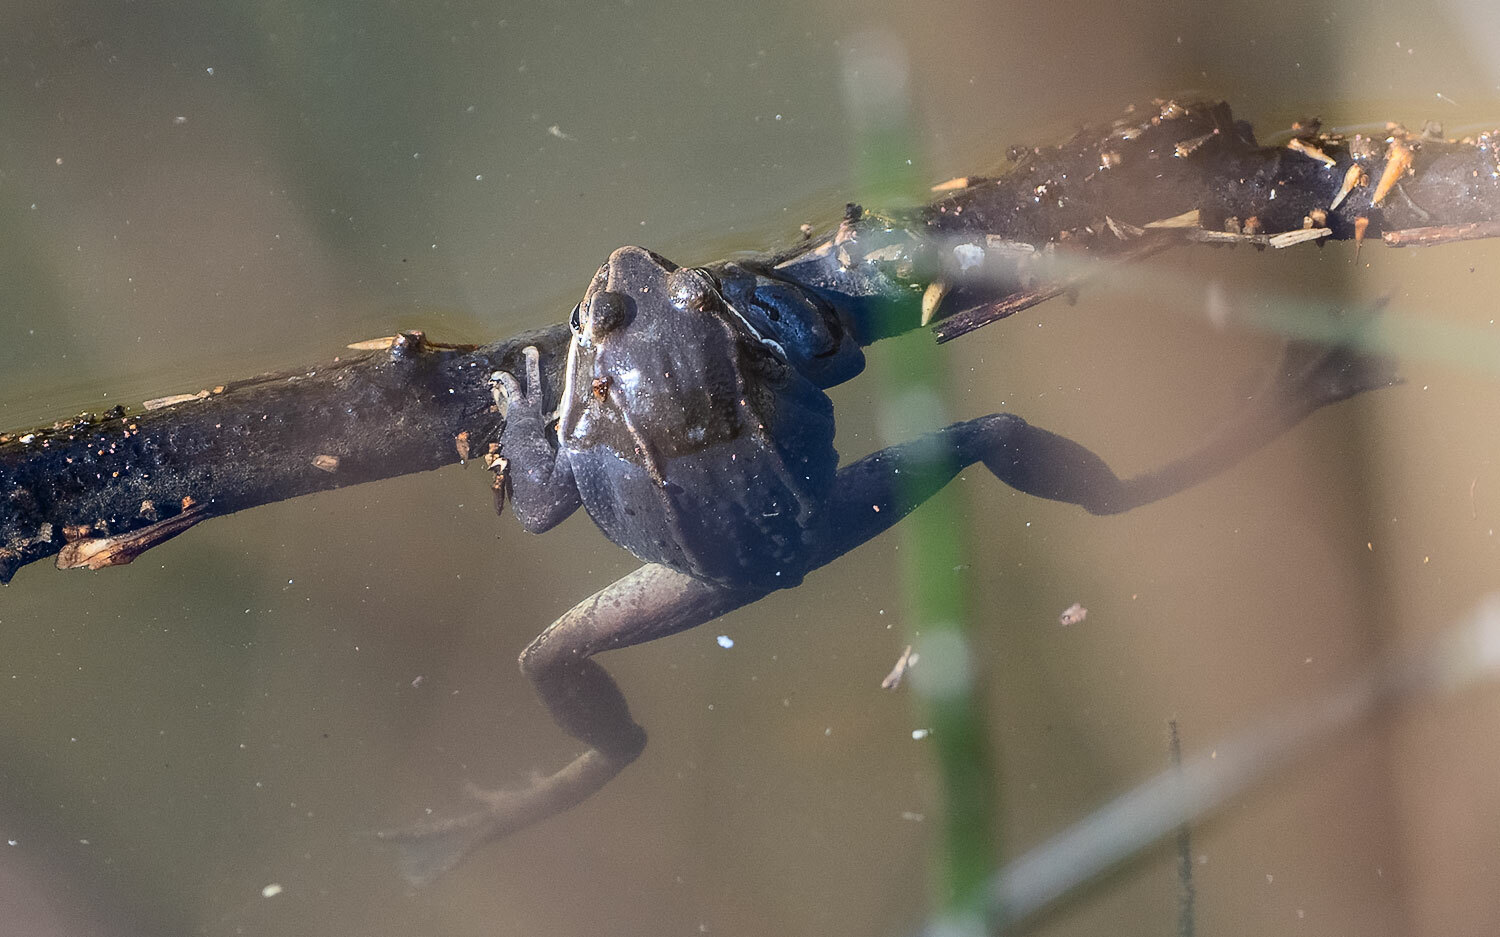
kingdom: Animalia
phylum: Chordata
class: Amphibia
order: Anura
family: Ranidae
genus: Lithobates
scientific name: Lithobates sylvaticus
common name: Wood frog
